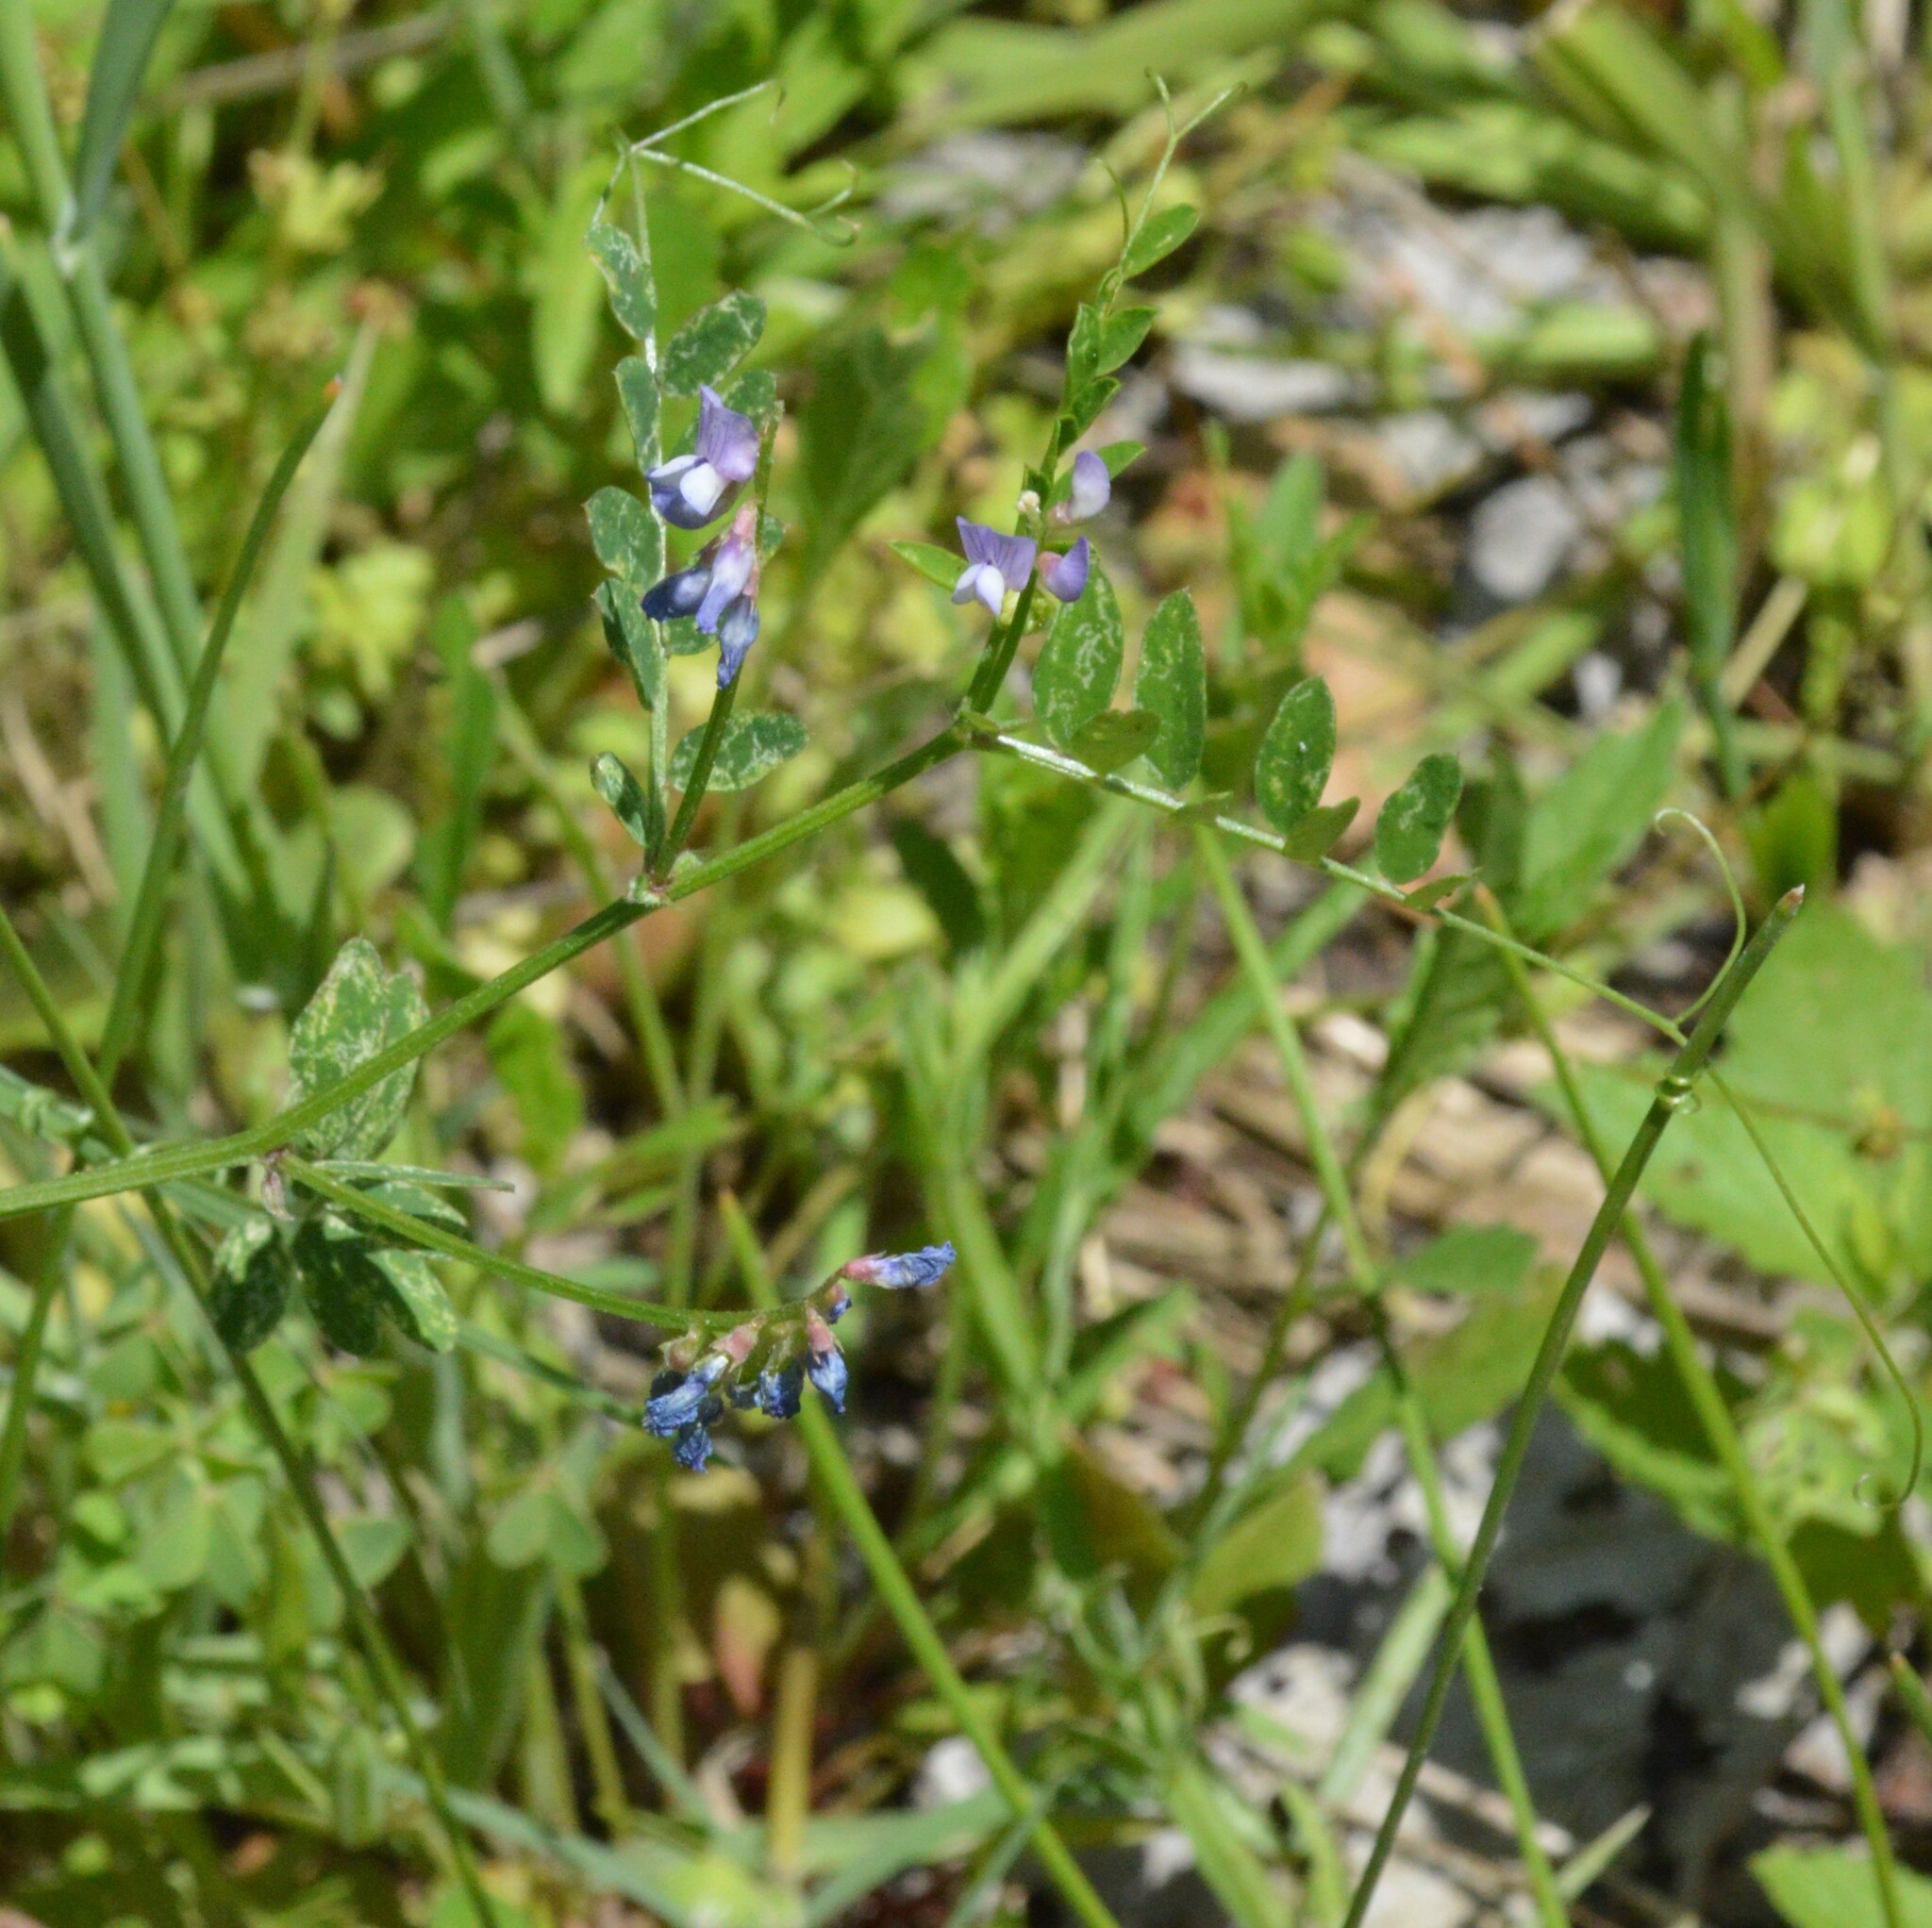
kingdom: Plantae
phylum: Tracheophyta
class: Magnoliopsida
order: Fabales
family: Fabaceae
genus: Vicia
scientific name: Vicia ludoviciana
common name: Louisiana vetch
